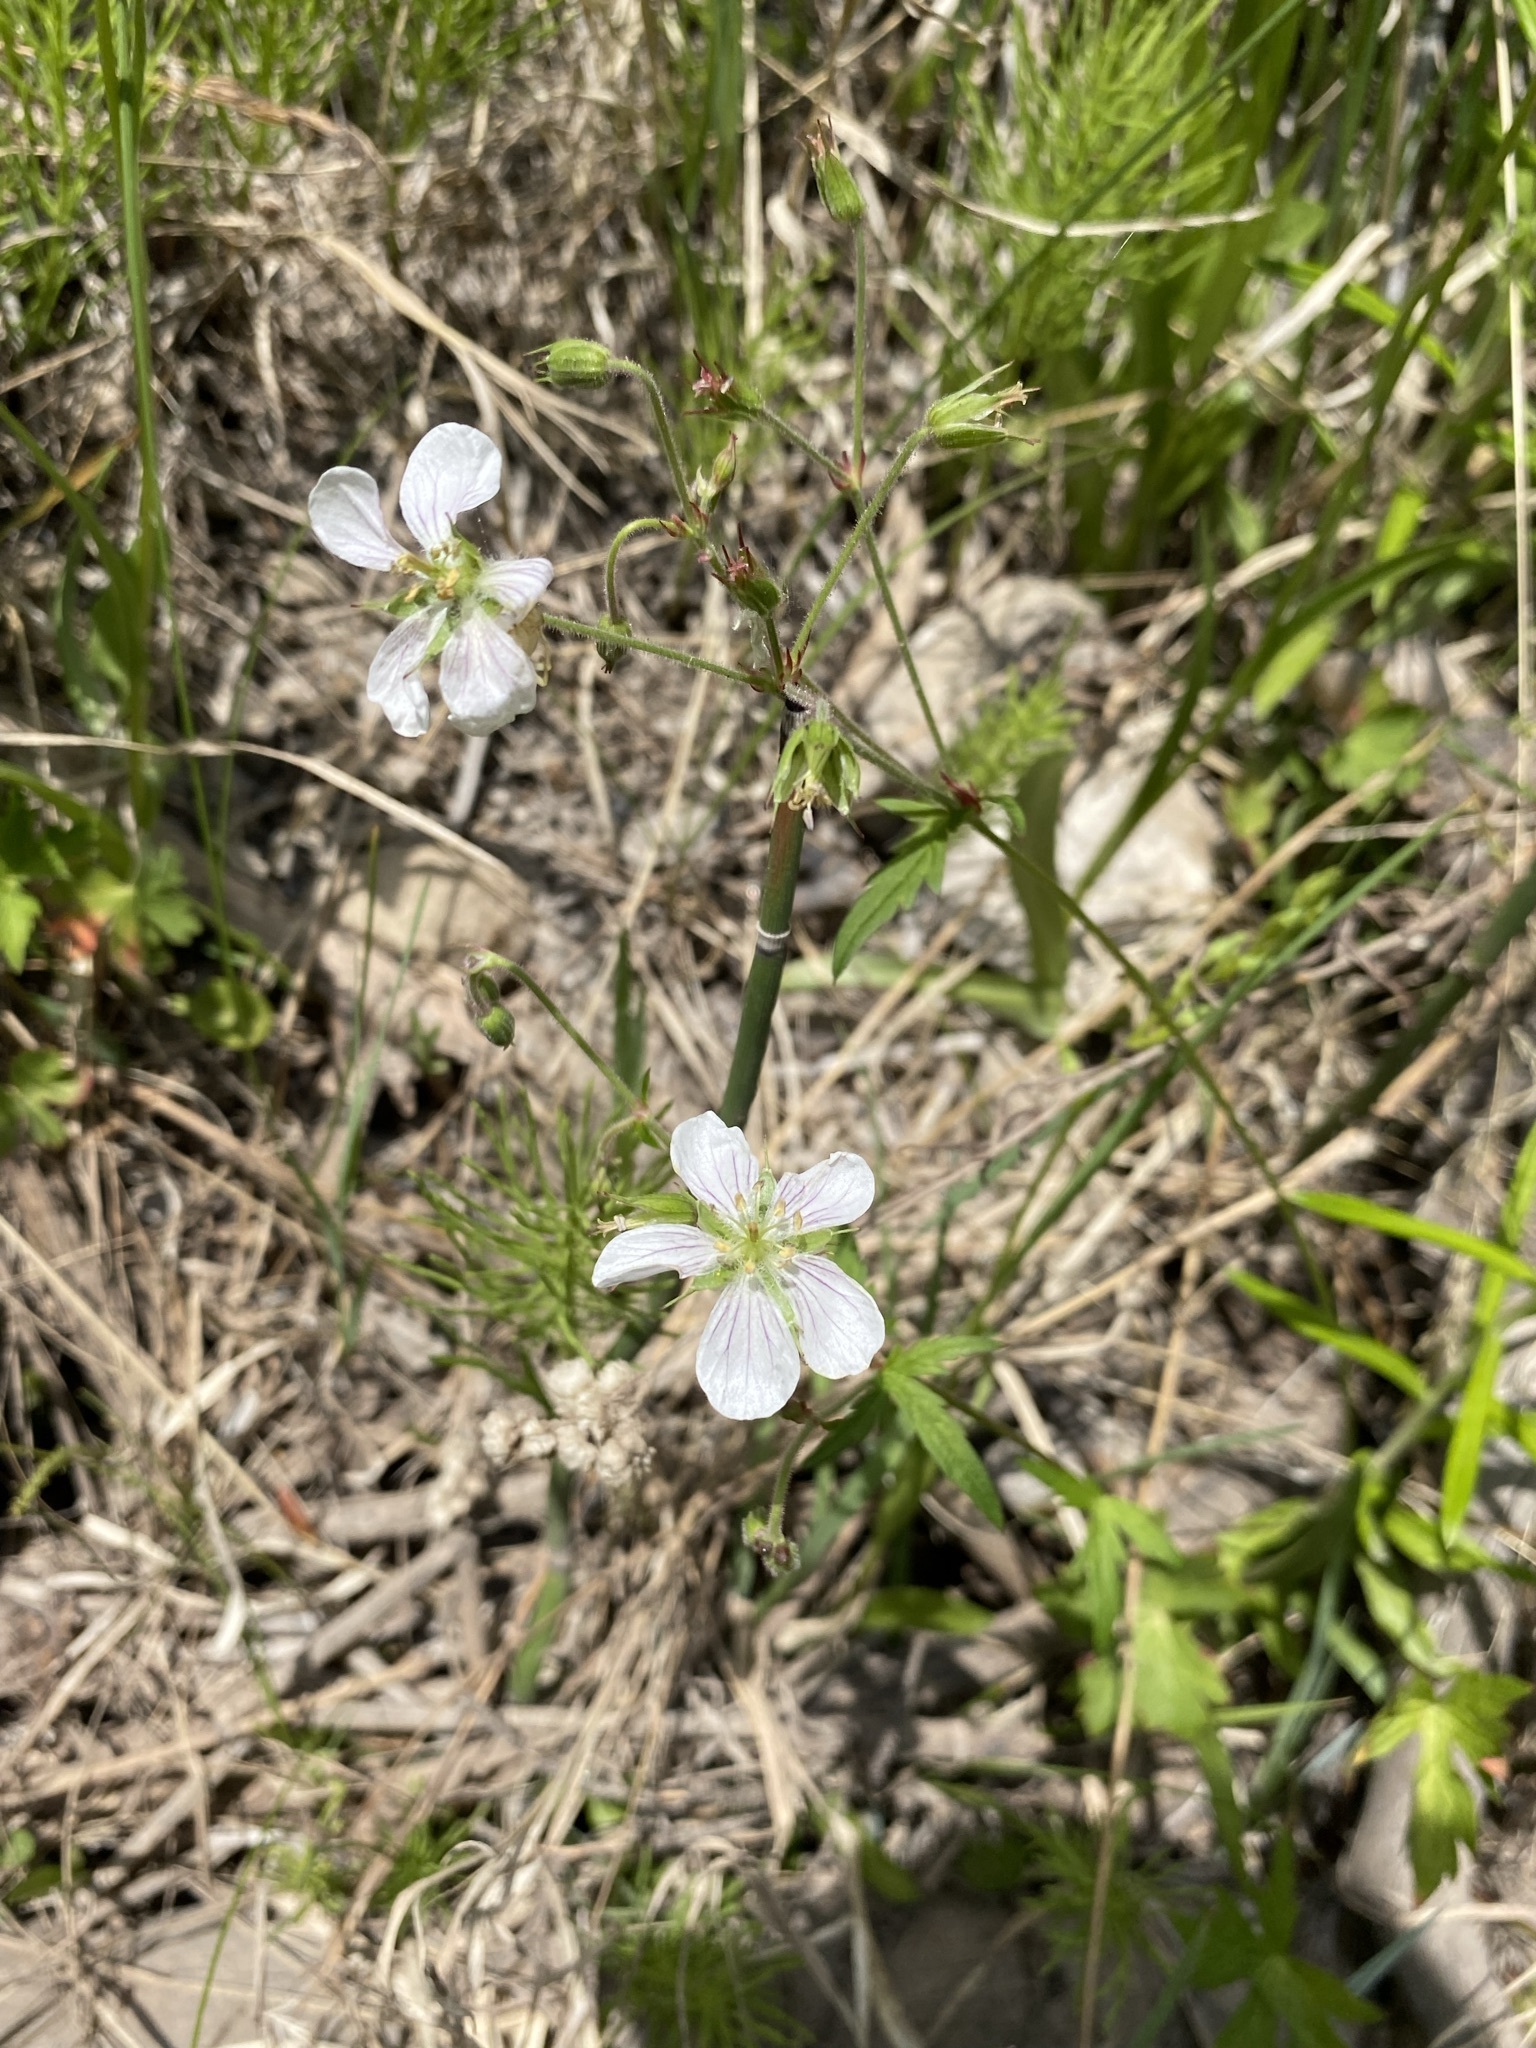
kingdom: Plantae
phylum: Tracheophyta
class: Magnoliopsida
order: Geraniales
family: Geraniaceae
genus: Geranium
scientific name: Geranium richardsonii
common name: Richardson's crane's-bill
